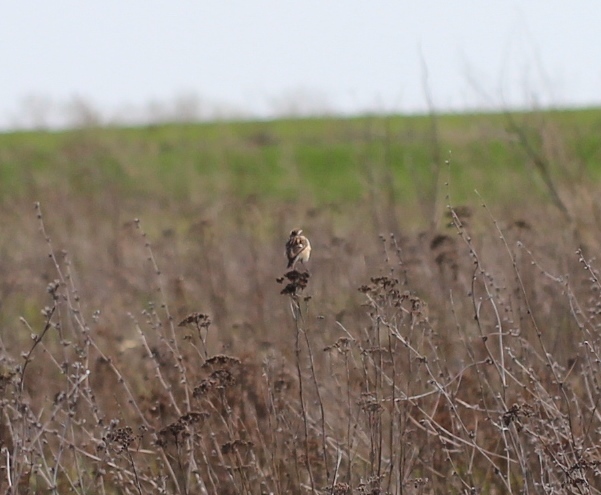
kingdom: Animalia
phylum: Chordata
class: Aves
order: Passeriformes
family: Muscicapidae
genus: Saxicola
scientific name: Saxicola rubetra
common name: Whinchat
